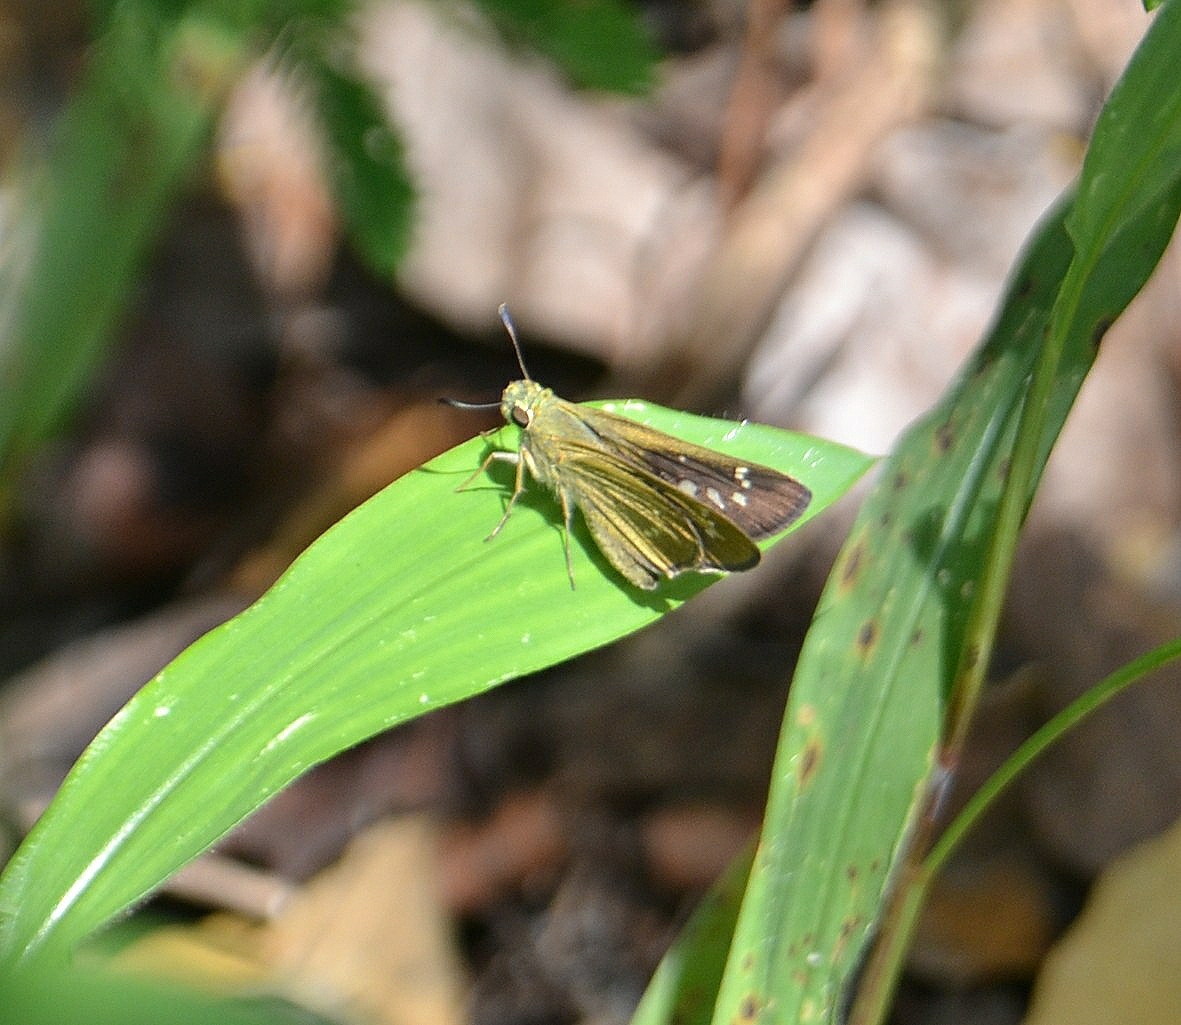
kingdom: Animalia
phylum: Arthropoda
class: Insecta
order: Lepidoptera
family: Hesperiidae
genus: Borbo
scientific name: Borbo cinnara
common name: Formosan swift
